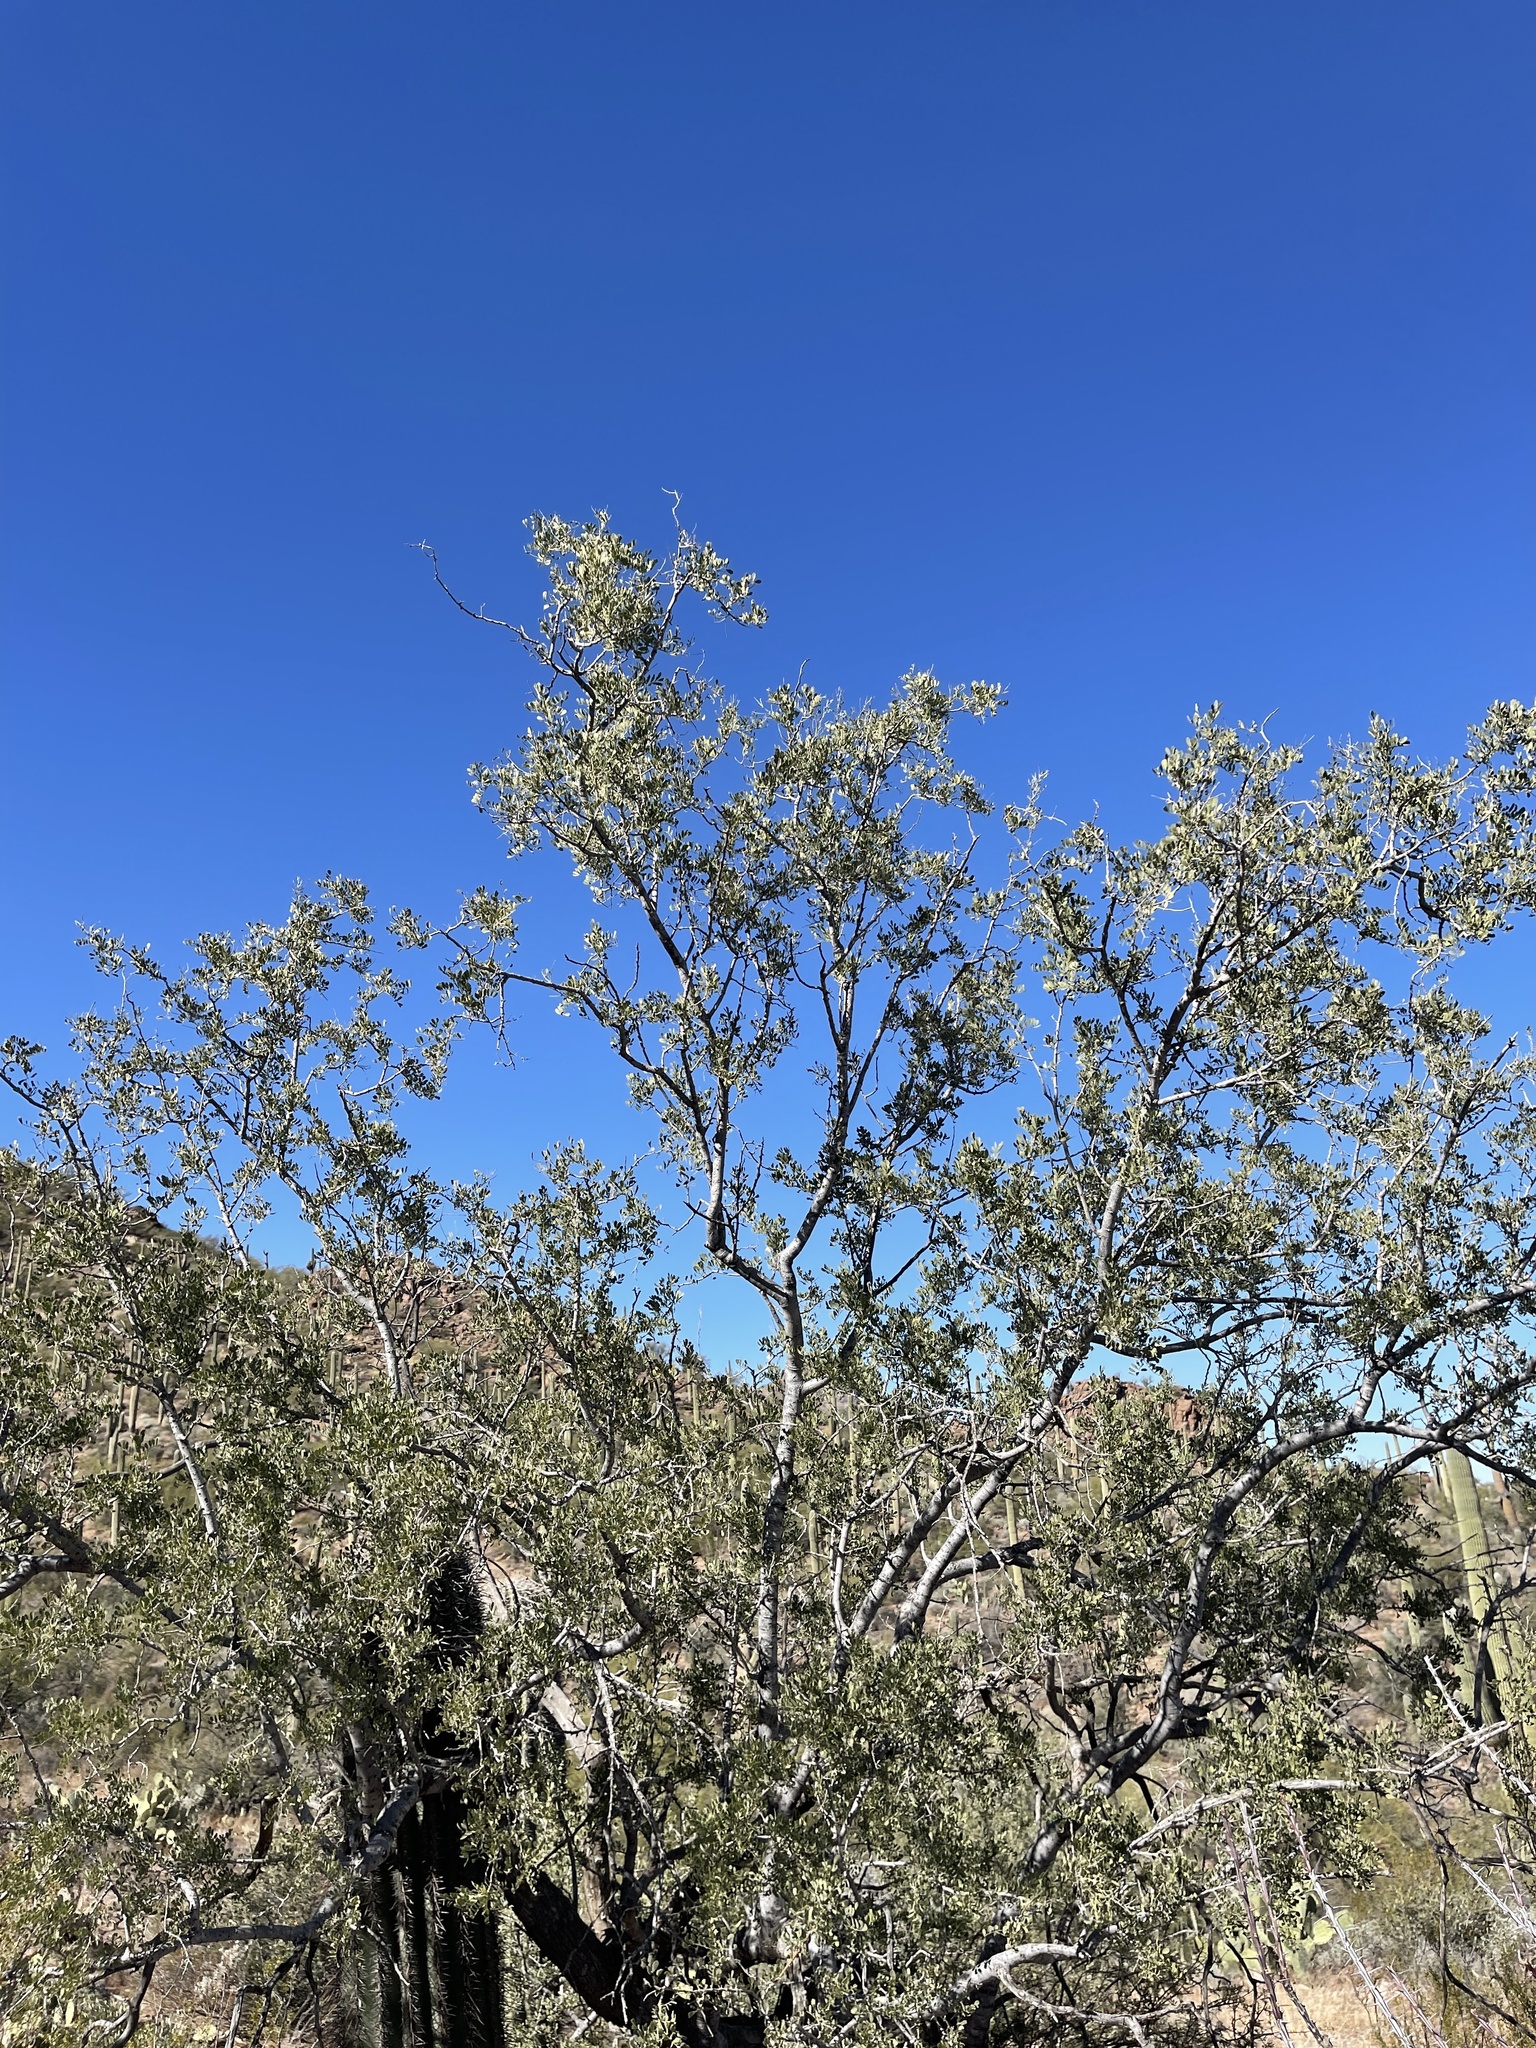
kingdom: Plantae
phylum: Tracheophyta
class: Magnoliopsida
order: Fabales
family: Fabaceae
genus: Olneya
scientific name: Olneya tesota
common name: Desert ironwood
